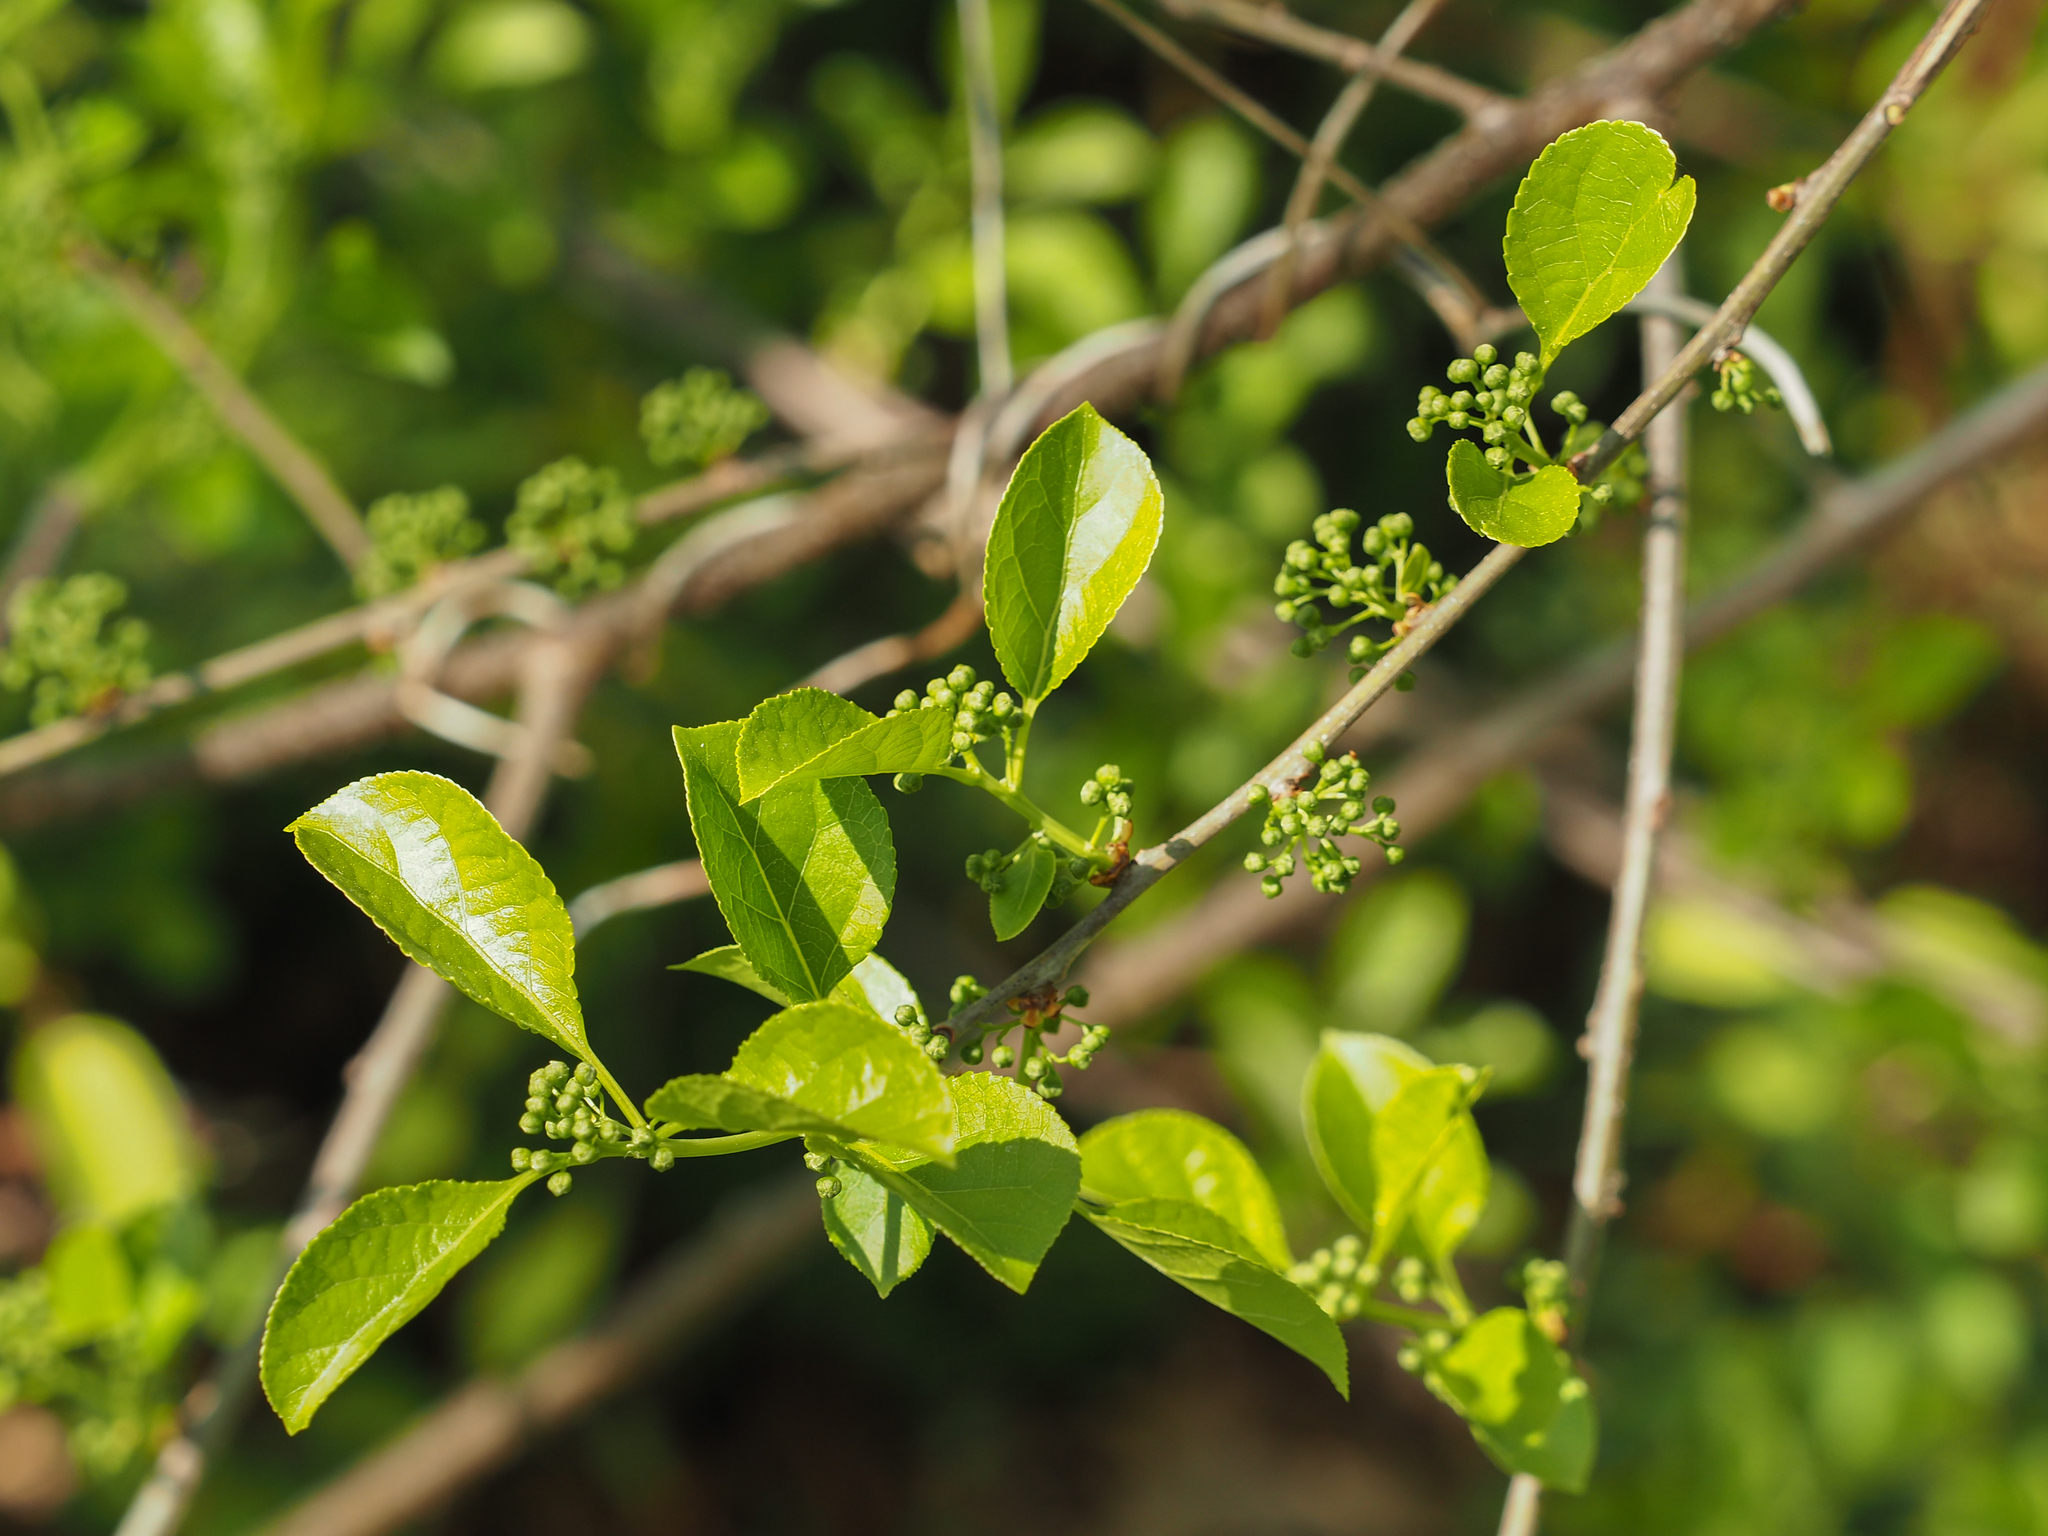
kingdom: Plantae
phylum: Tracheophyta
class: Magnoliopsida
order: Celastrales
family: Celastraceae
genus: Celastrus
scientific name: Celastrus orbiculatus
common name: Oriental bittersweet
